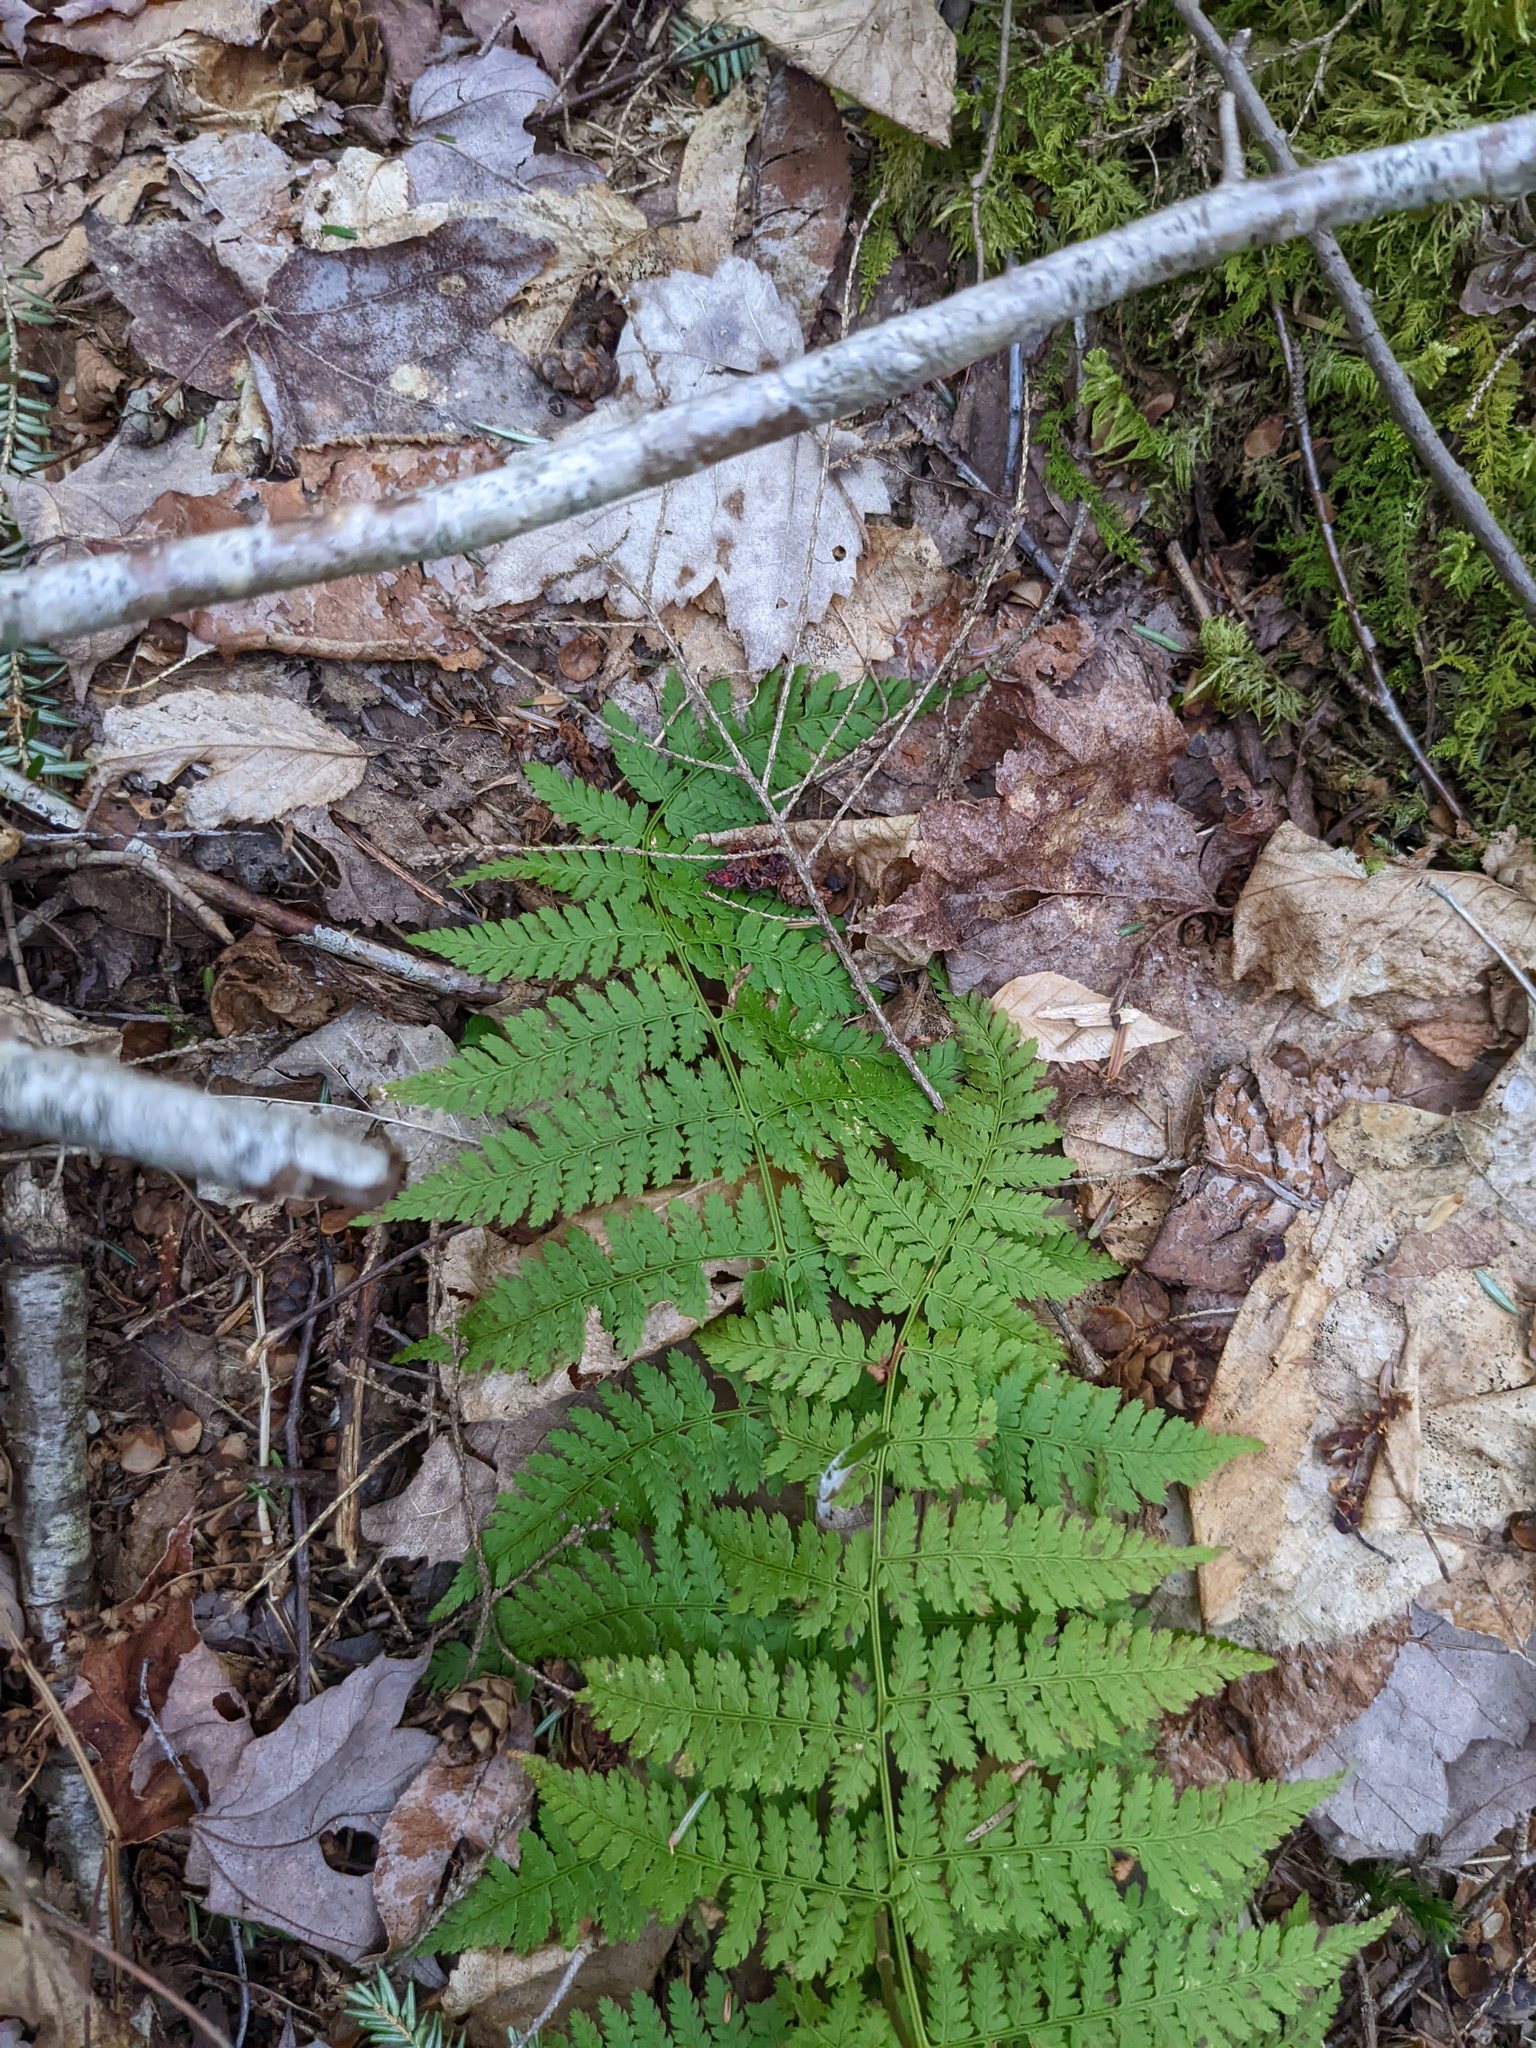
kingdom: Plantae
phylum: Tracheophyta
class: Polypodiopsida
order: Polypodiales
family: Dryopteridaceae
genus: Dryopteris
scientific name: Dryopteris intermedia
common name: Evergreen wood fern
